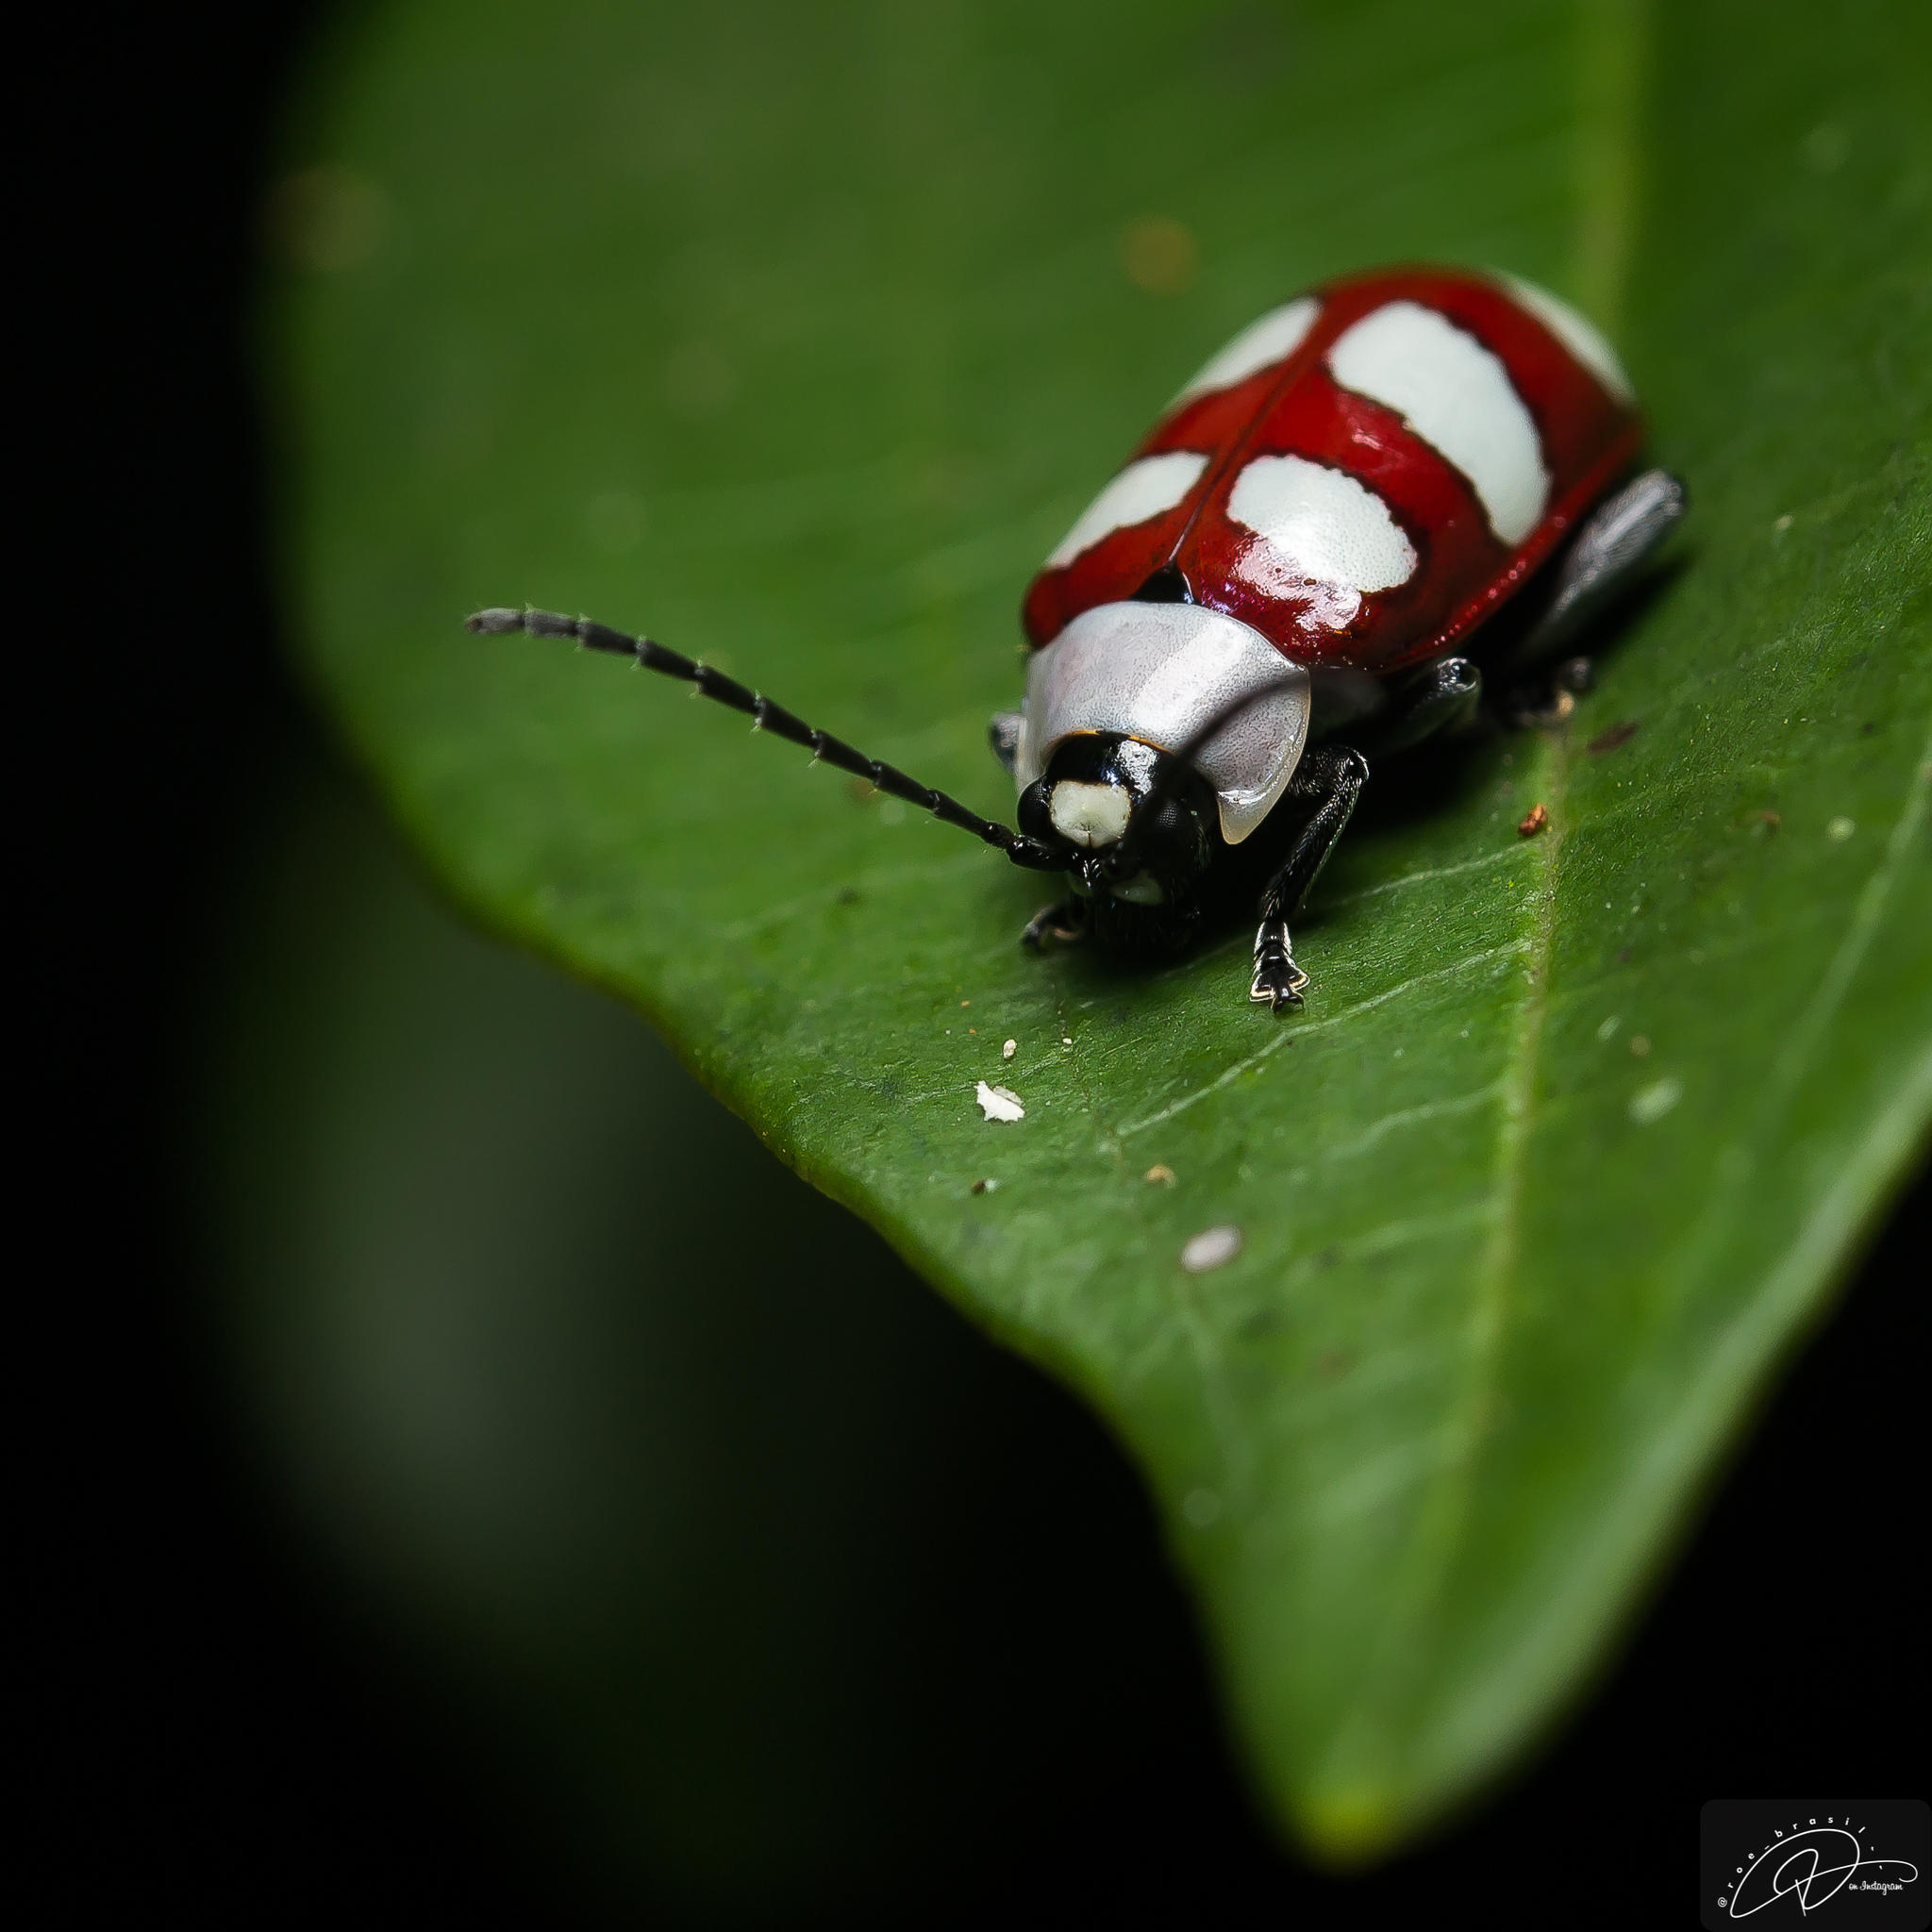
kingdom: Animalia
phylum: Arthropoda
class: Insecta
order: Coleoptera
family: Chrysomelidae
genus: Omophoita
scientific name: Omophoita personata
